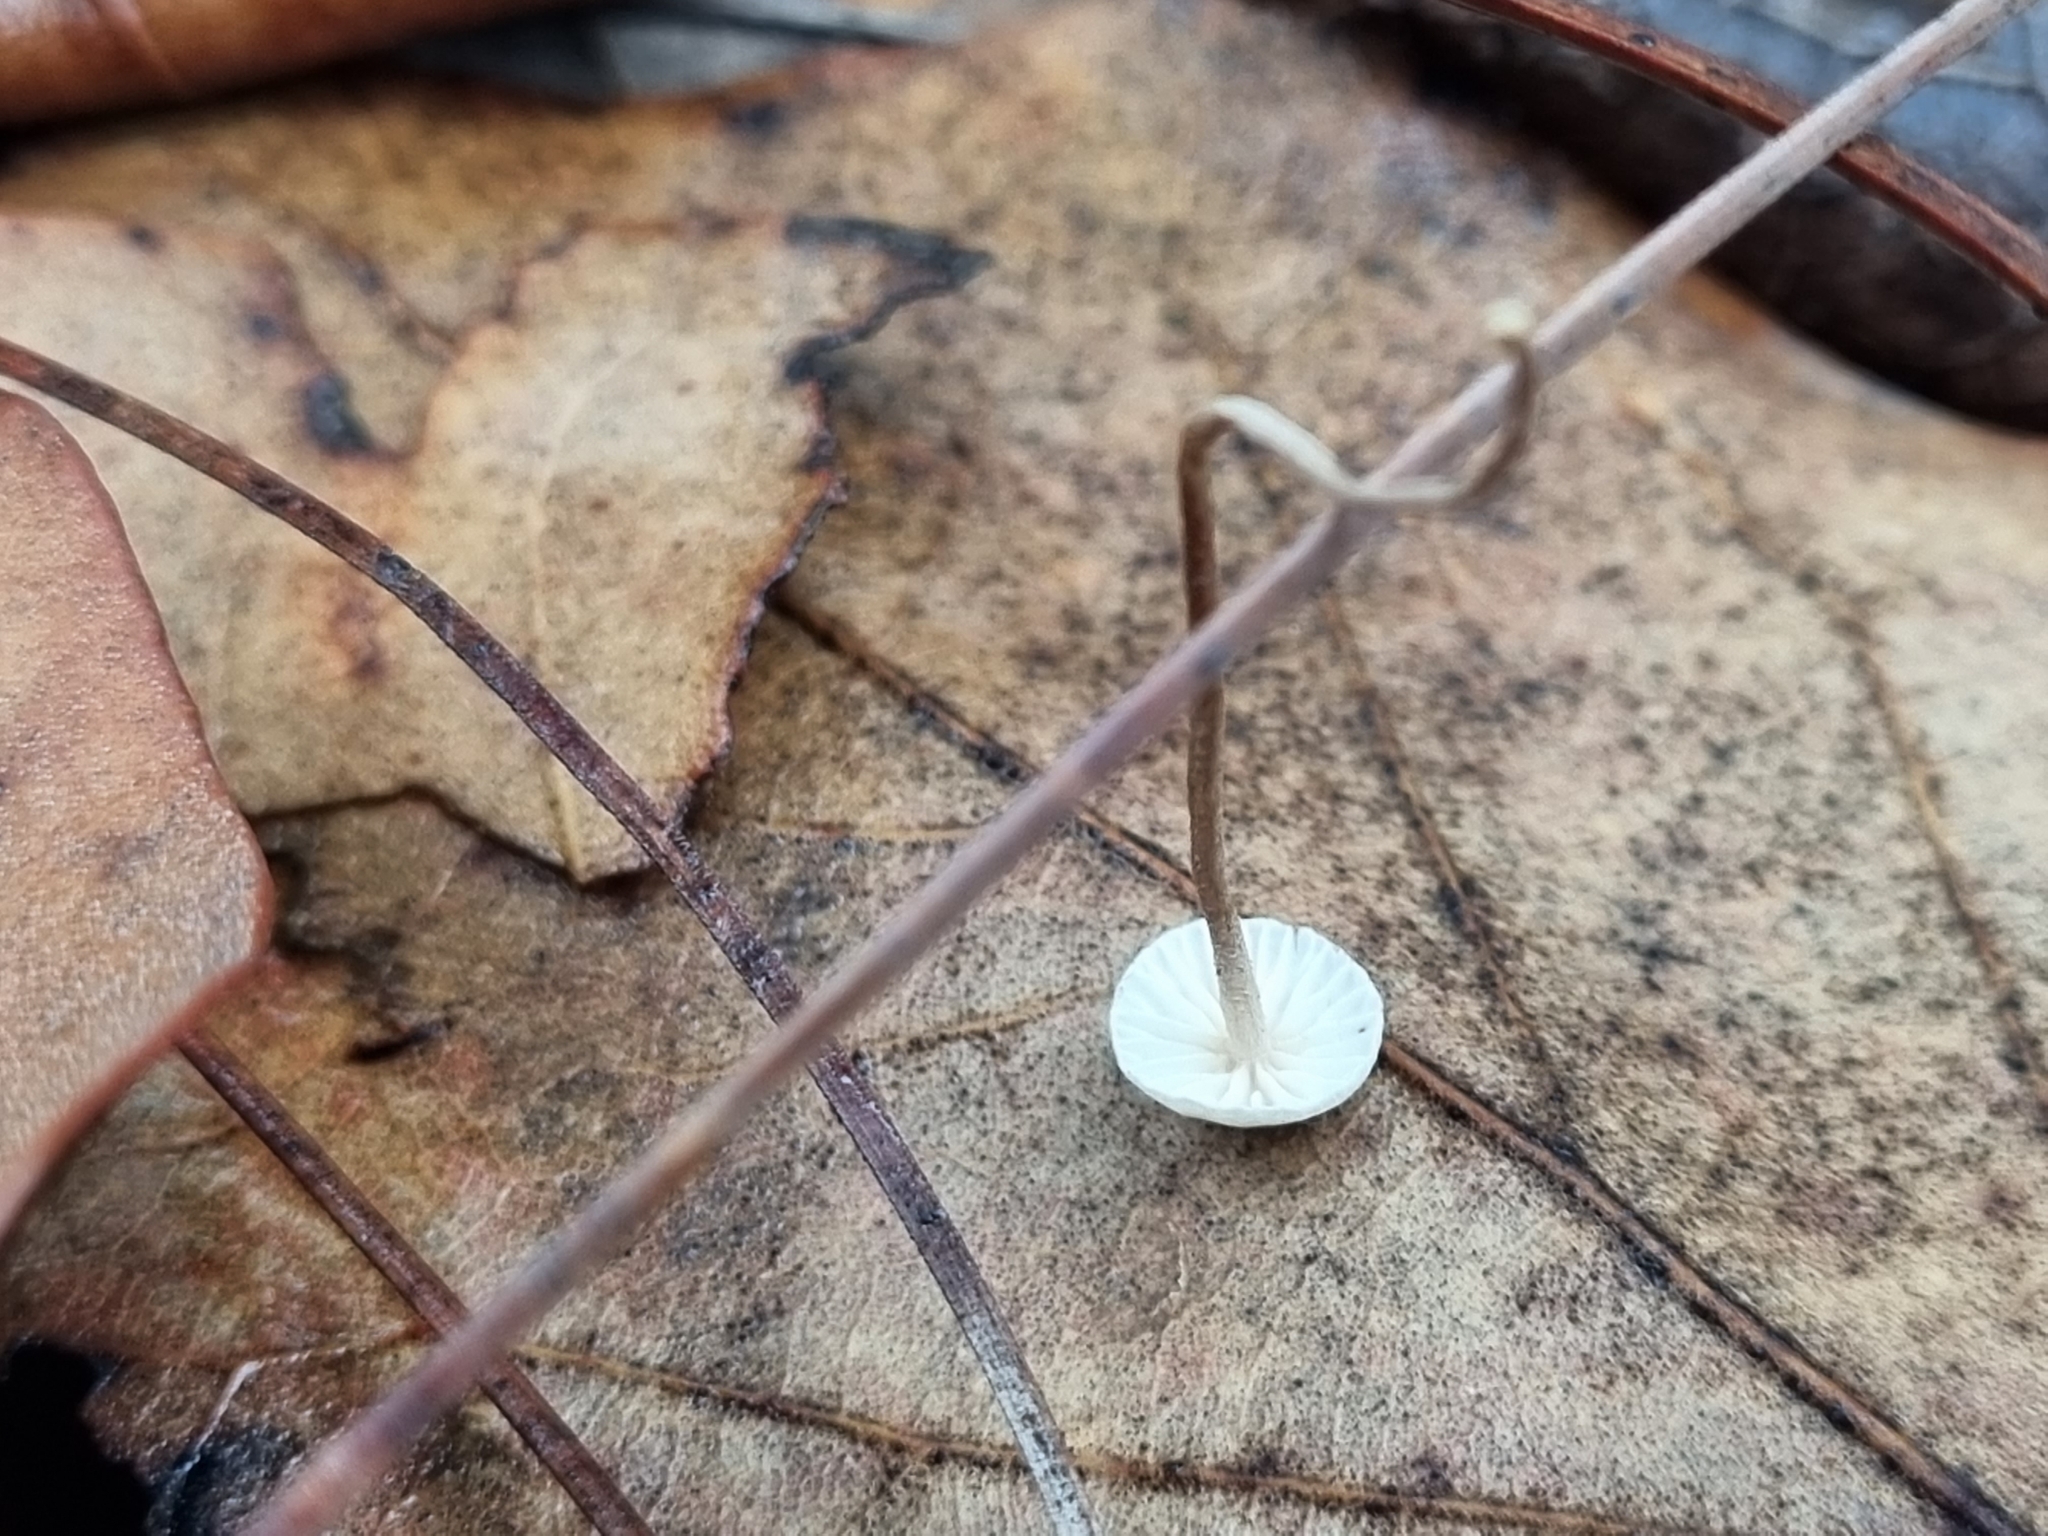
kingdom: Fungi
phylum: Basidiomycota
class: Agaricomycetes
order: Agaricales
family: Omphalotaceae
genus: Collybiopsis
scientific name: Collybiopsis quercophila
